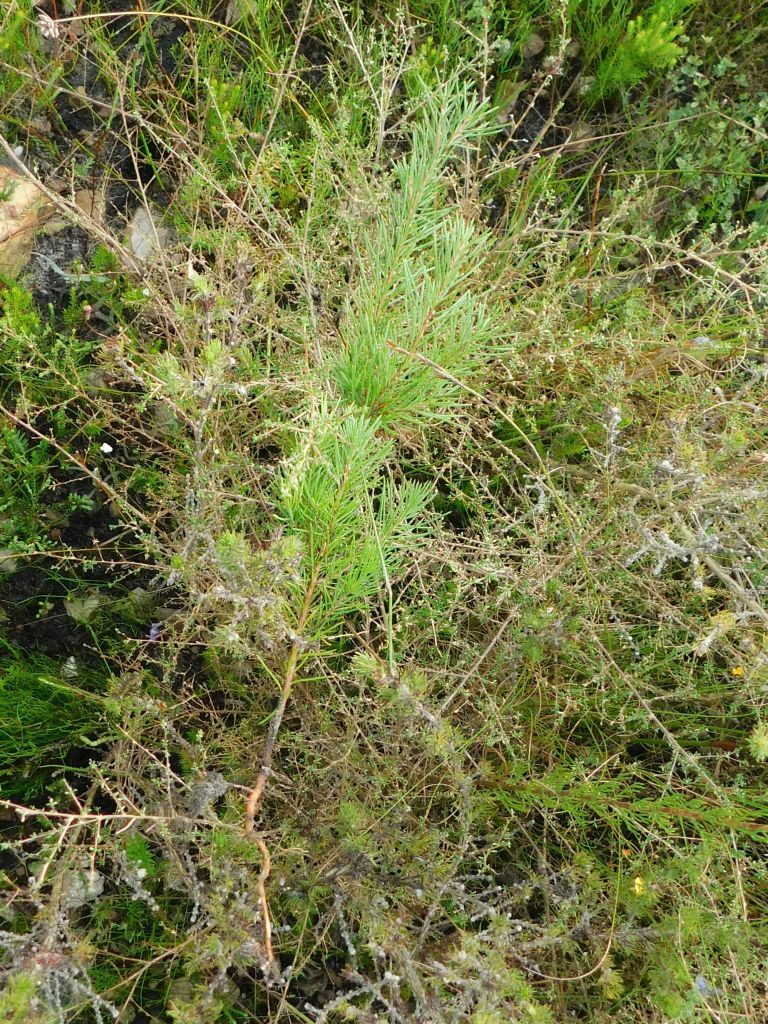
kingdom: Plantae
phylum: Tracheophyta
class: Magnoliopsida
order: Proteales
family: Proteaceae
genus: Hakea
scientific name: Hakea sericea
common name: Needle bush
